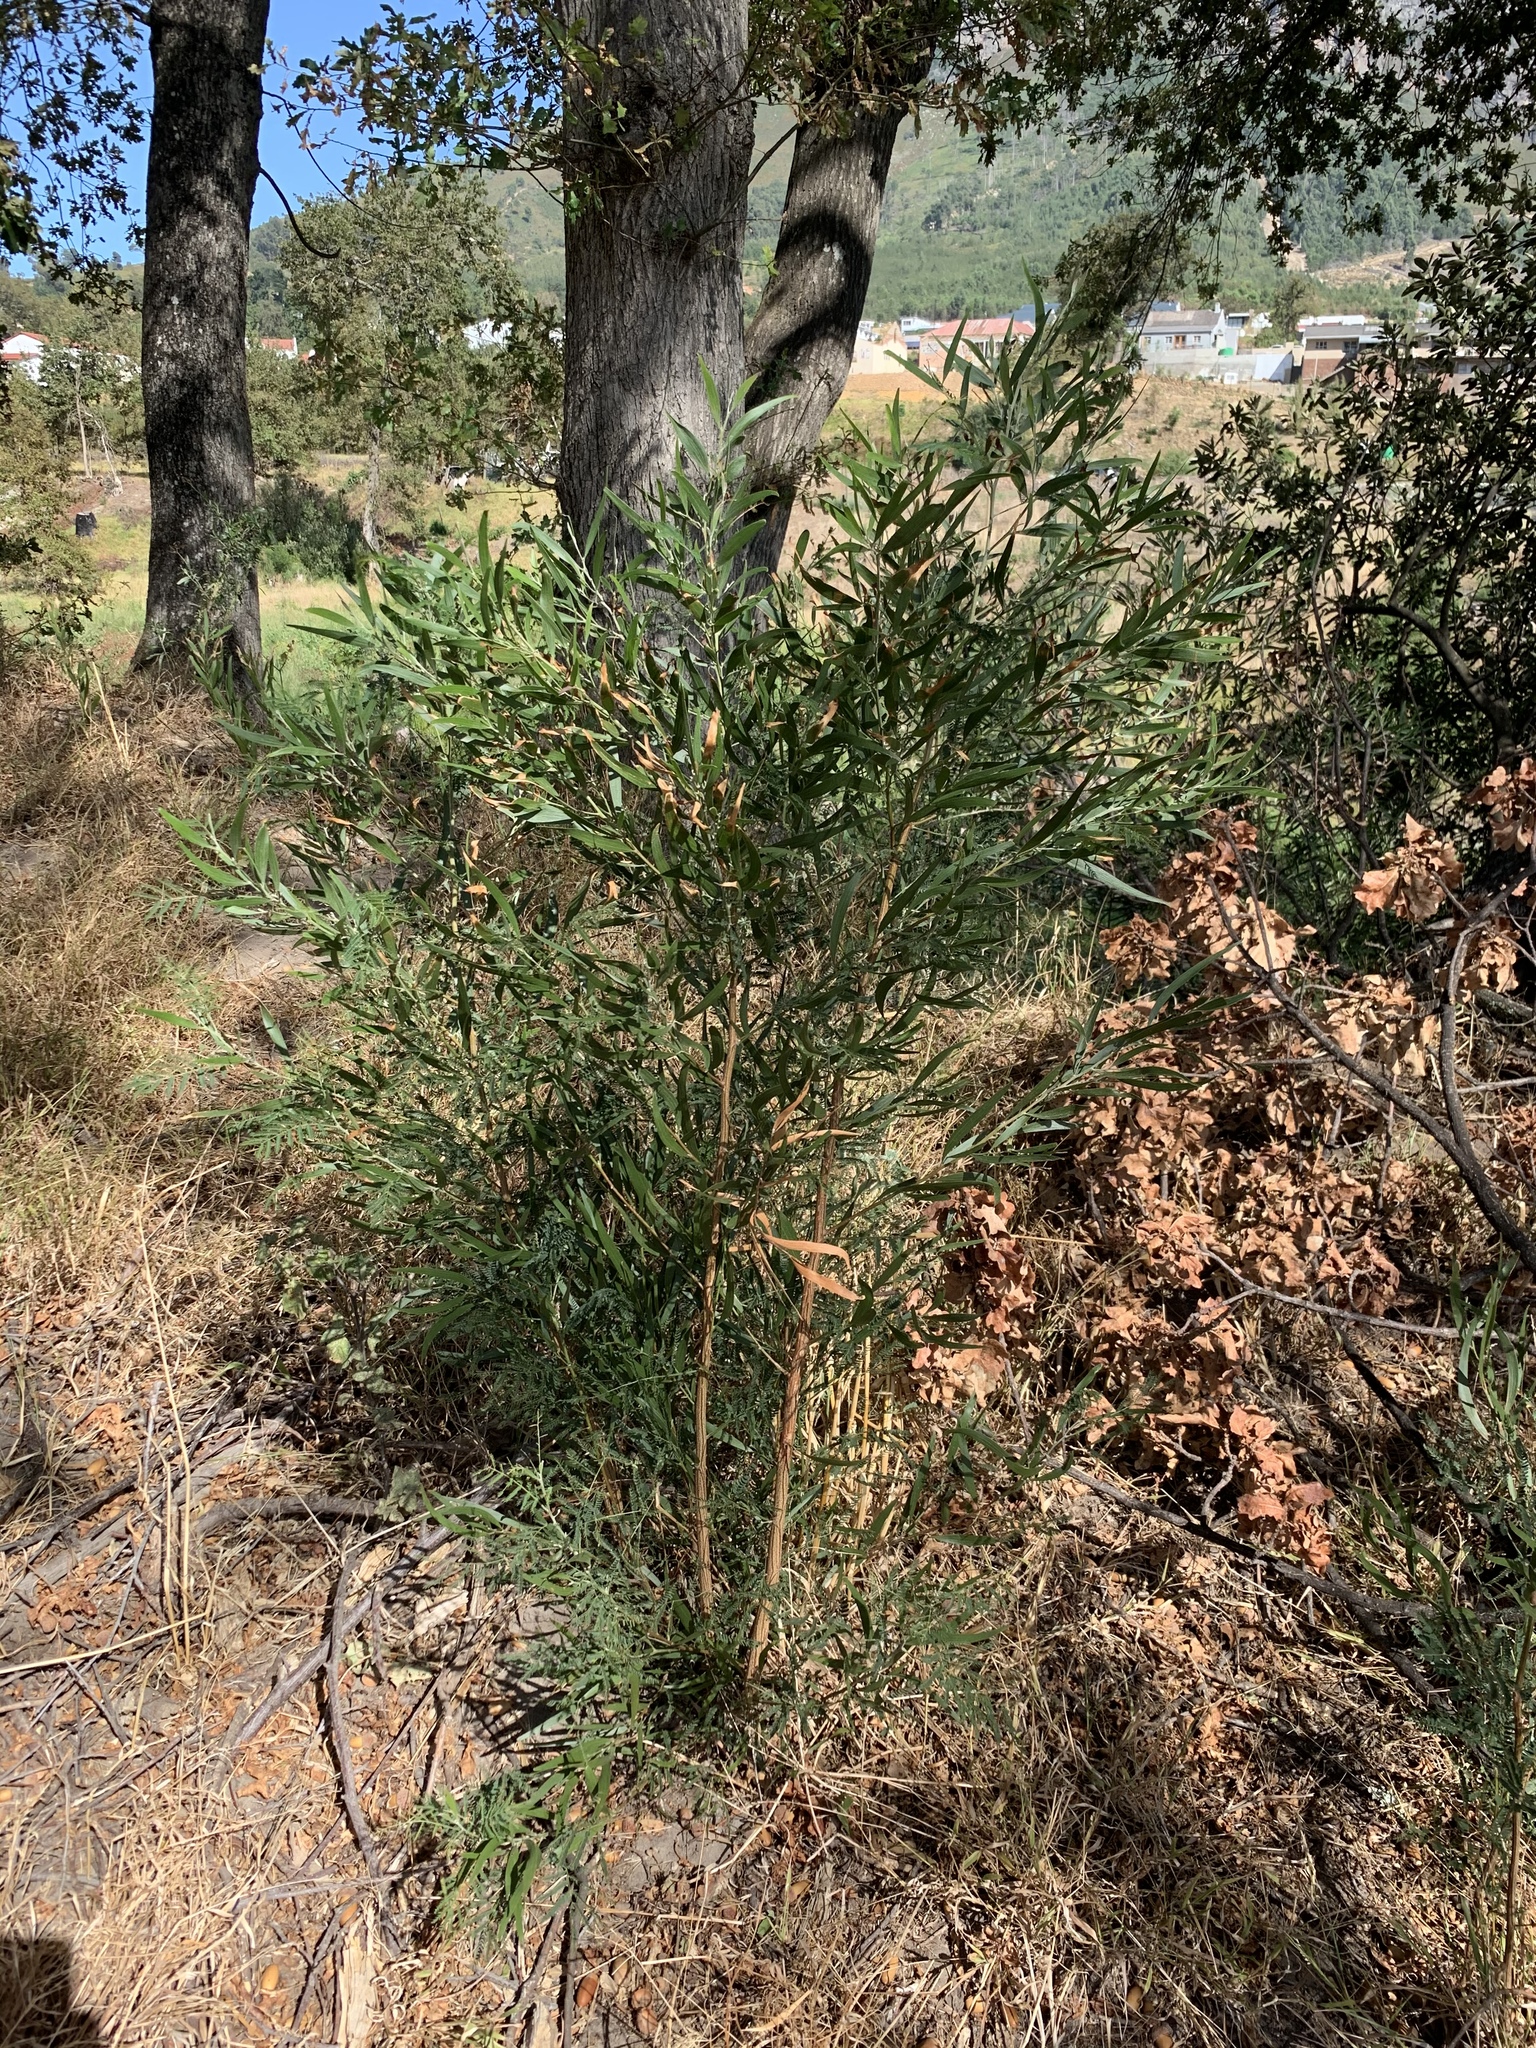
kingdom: Plantae
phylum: Tracheophyta
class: Magnoliopsida
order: Fabales
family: Fabaceae
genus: Acacia
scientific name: Acacia melanoxylon
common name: Blackwood
